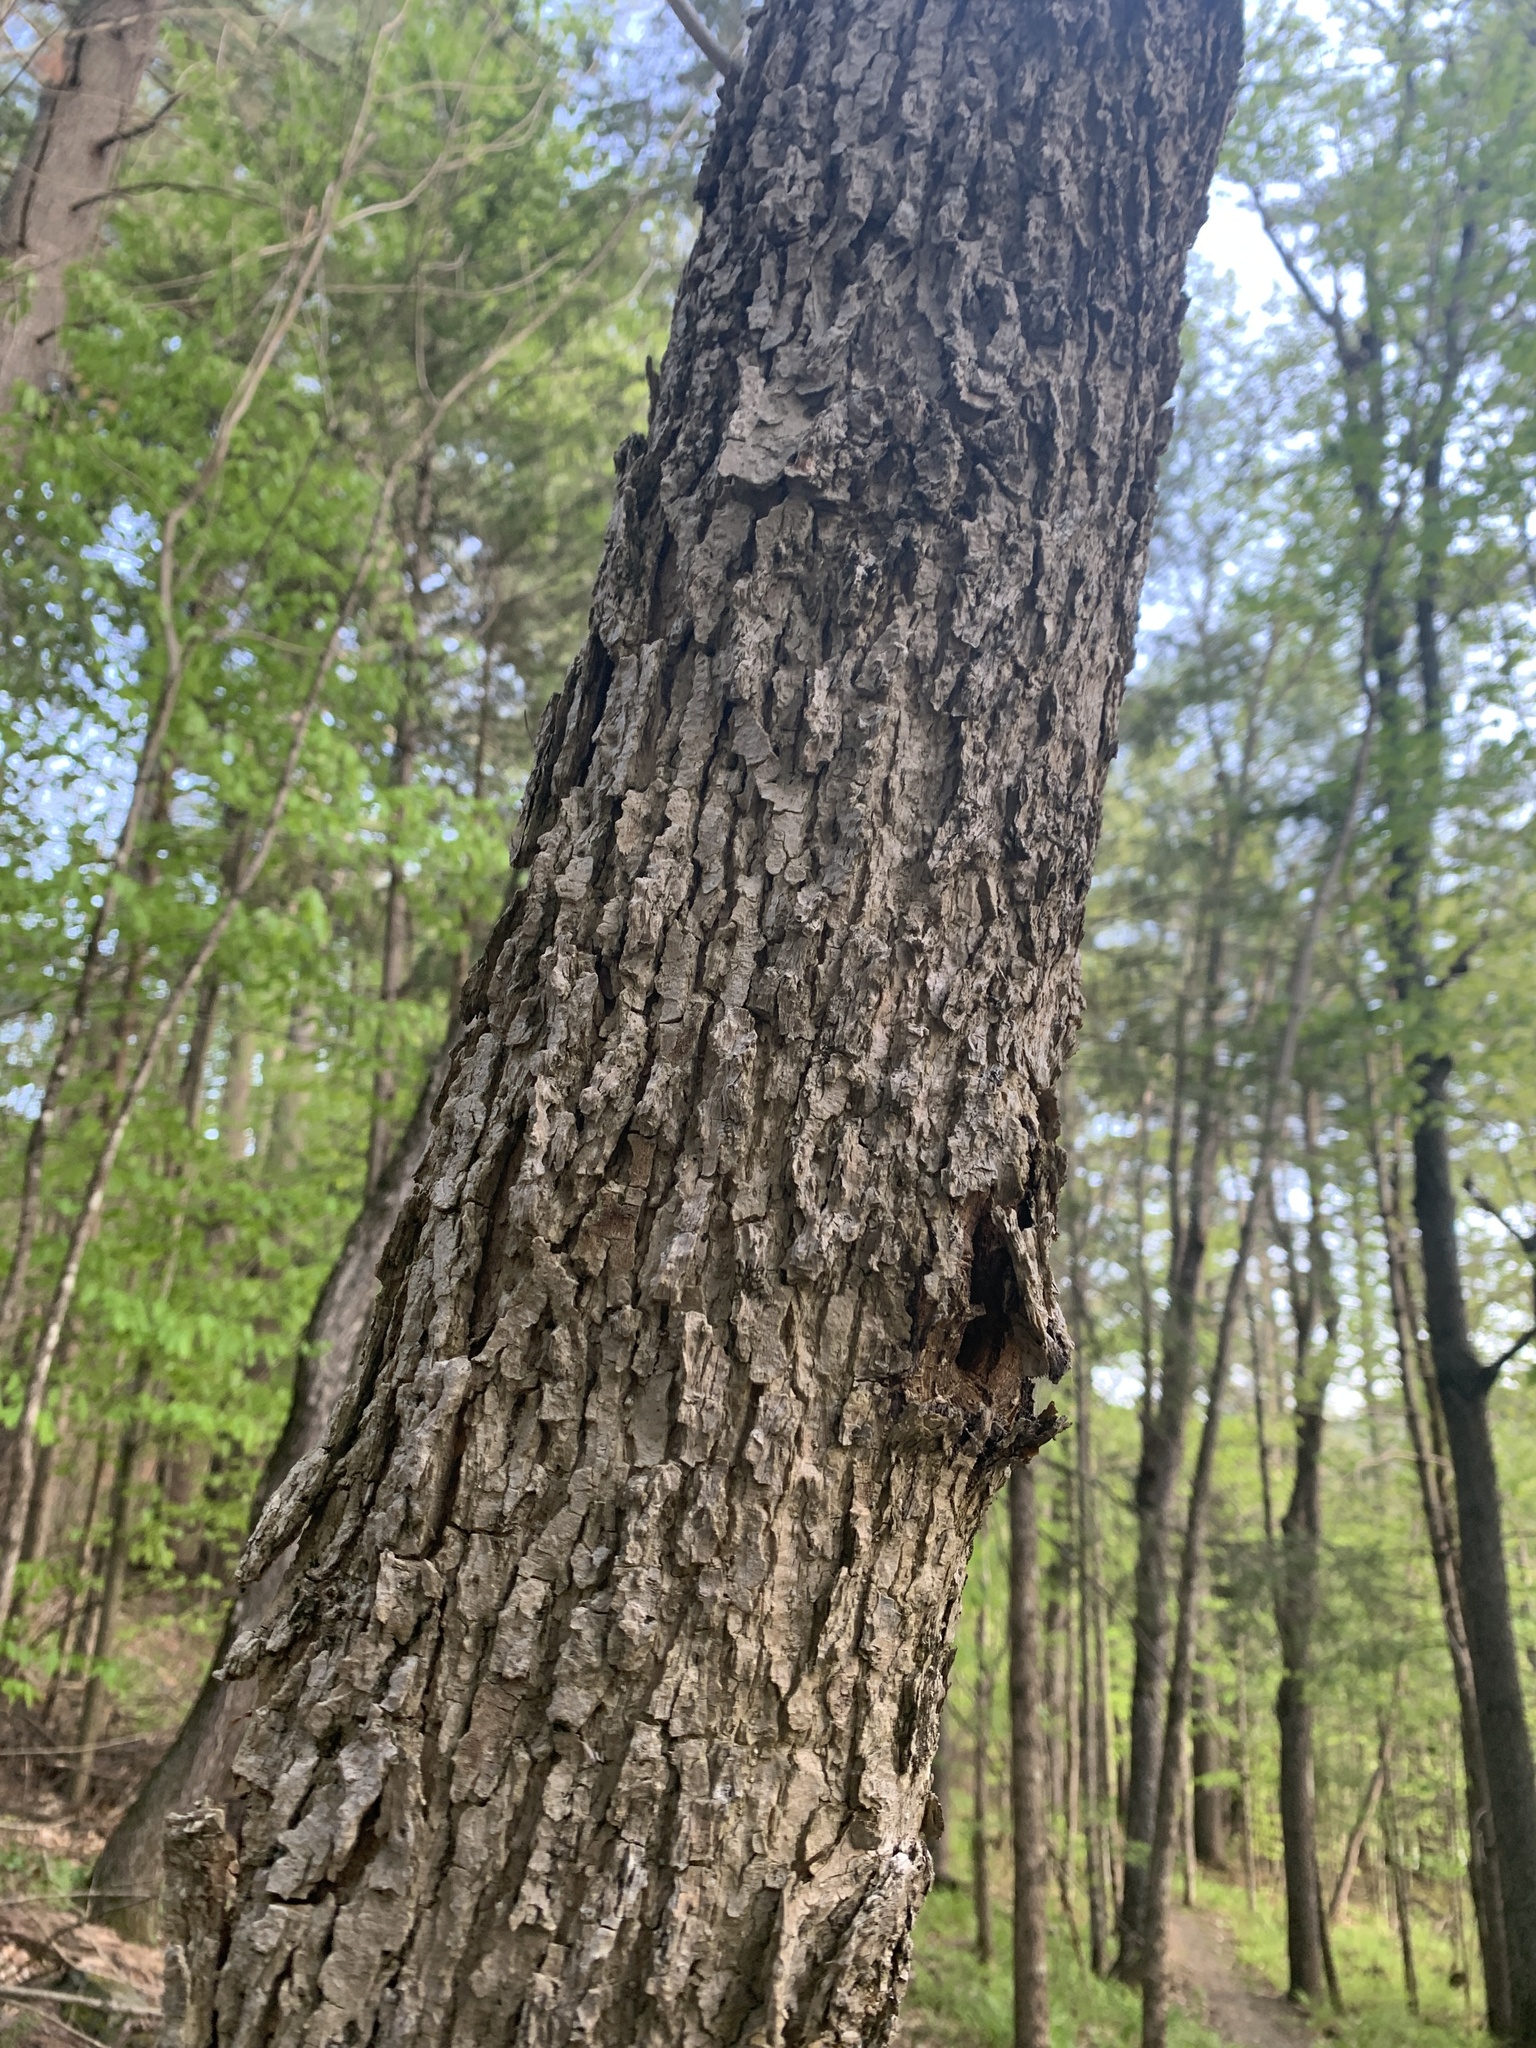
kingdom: Plantae
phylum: Tracheophyta
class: Magnoliopsida
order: Lamiales
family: Oleaceae
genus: Fraxinus
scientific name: Fraxinus nigra
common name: Black ash
